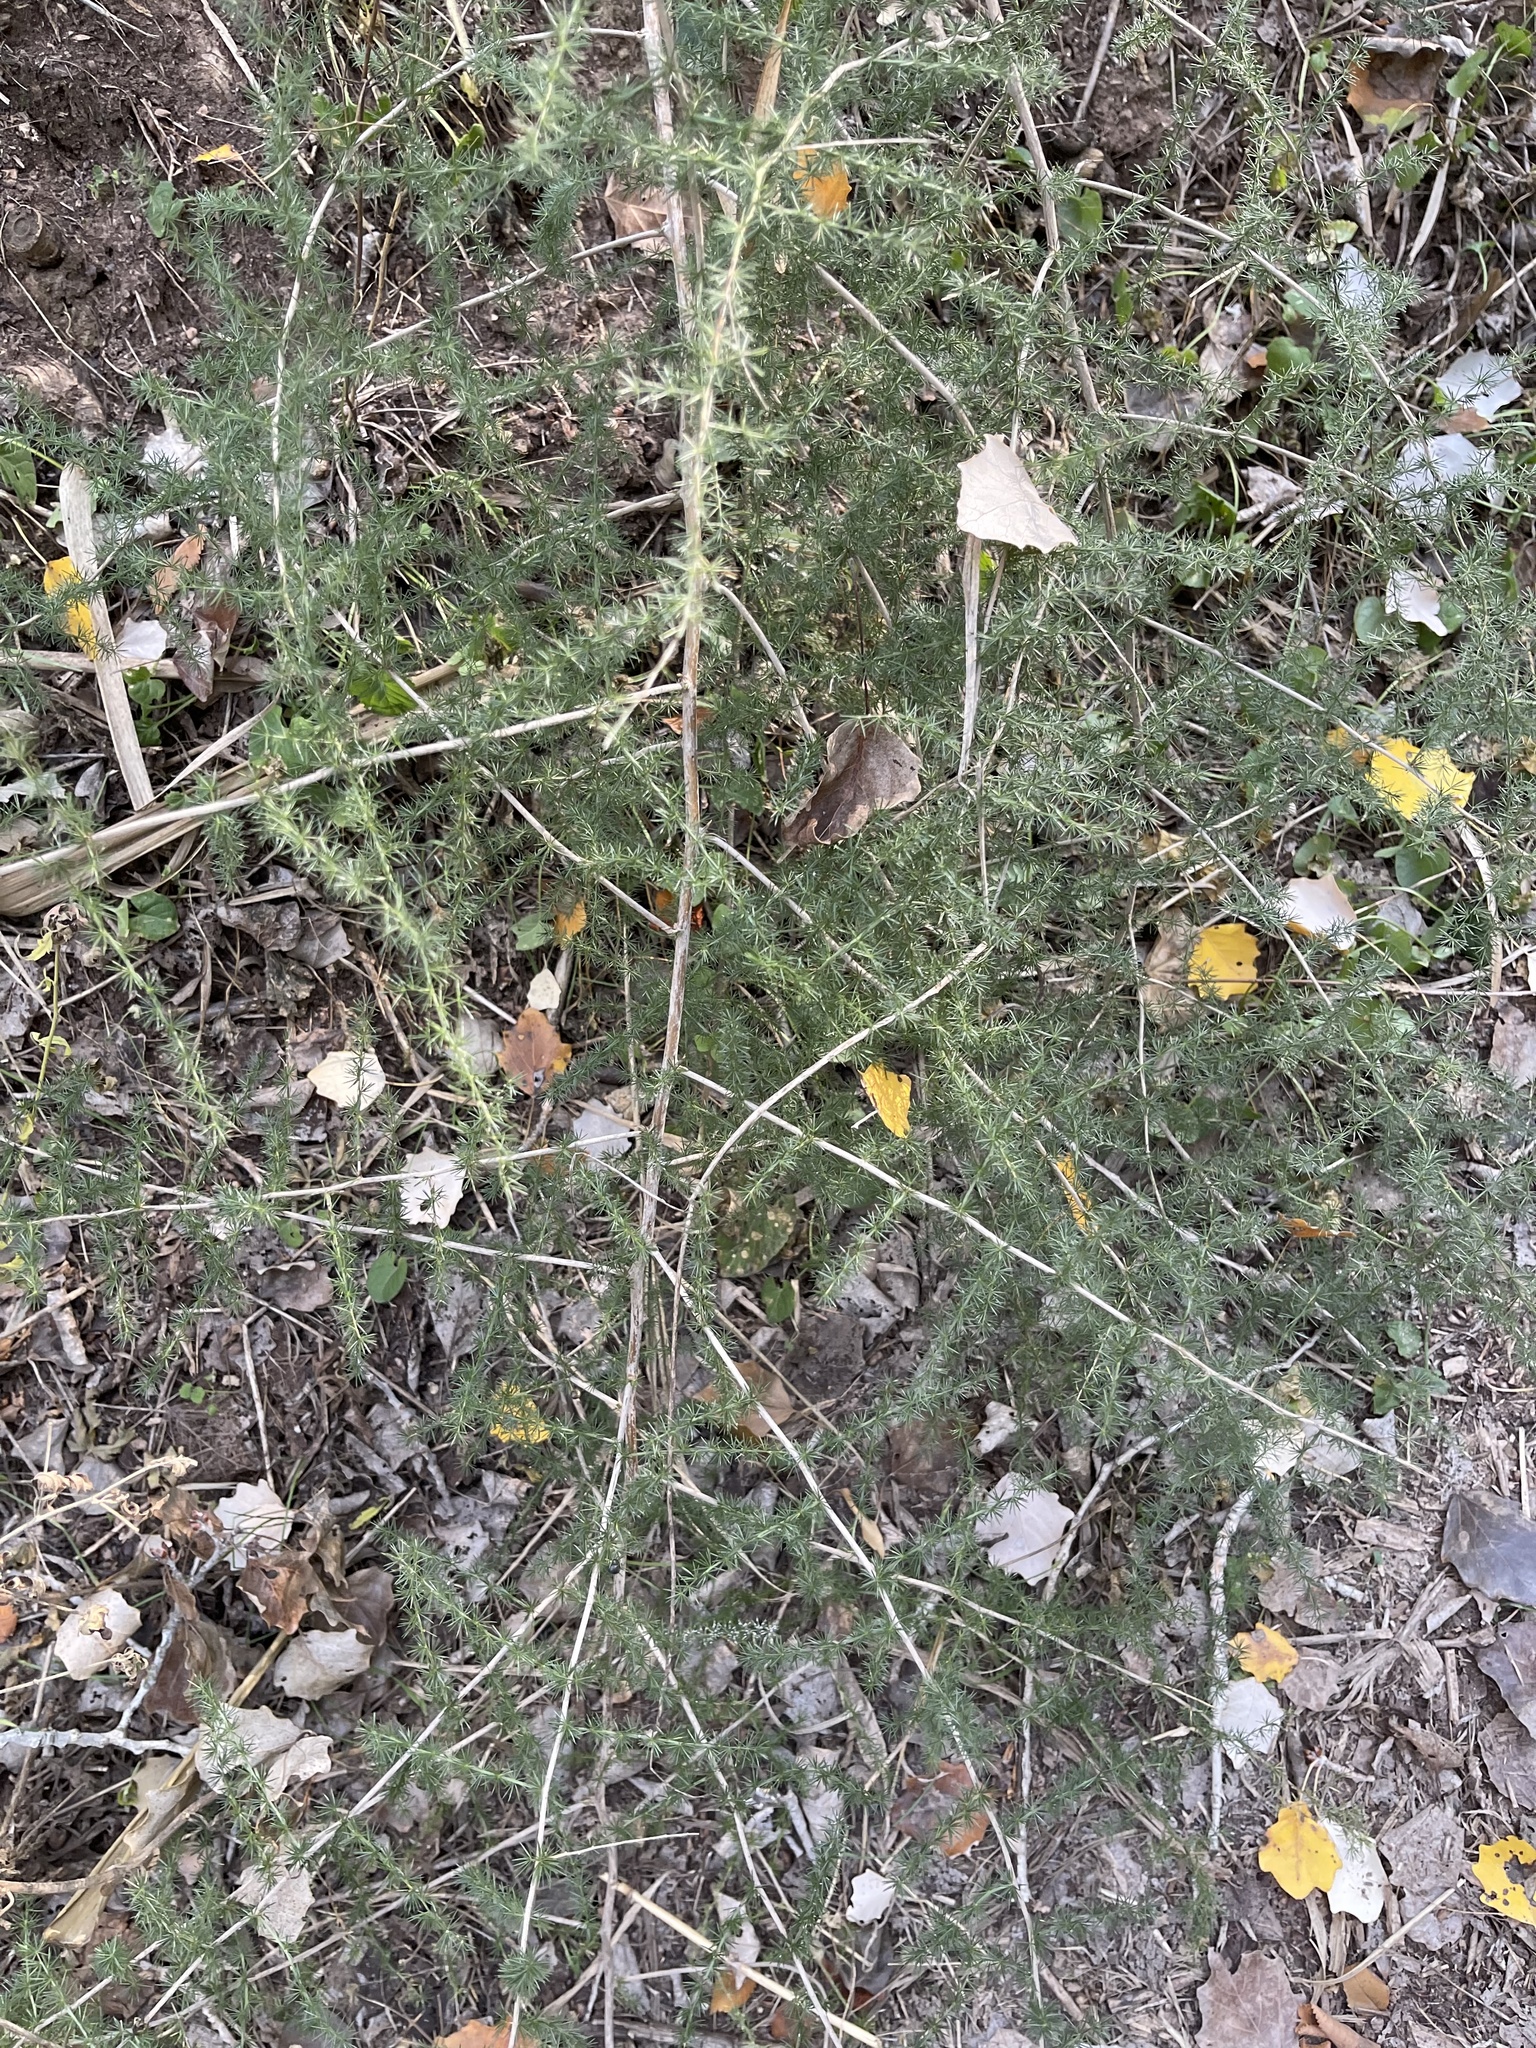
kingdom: Plantae
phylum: Tracheophyta
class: Liliopsida
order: Asparagales
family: Asparagaceae
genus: Asparagus
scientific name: Asparagus acutifolius
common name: Wild asparagus
